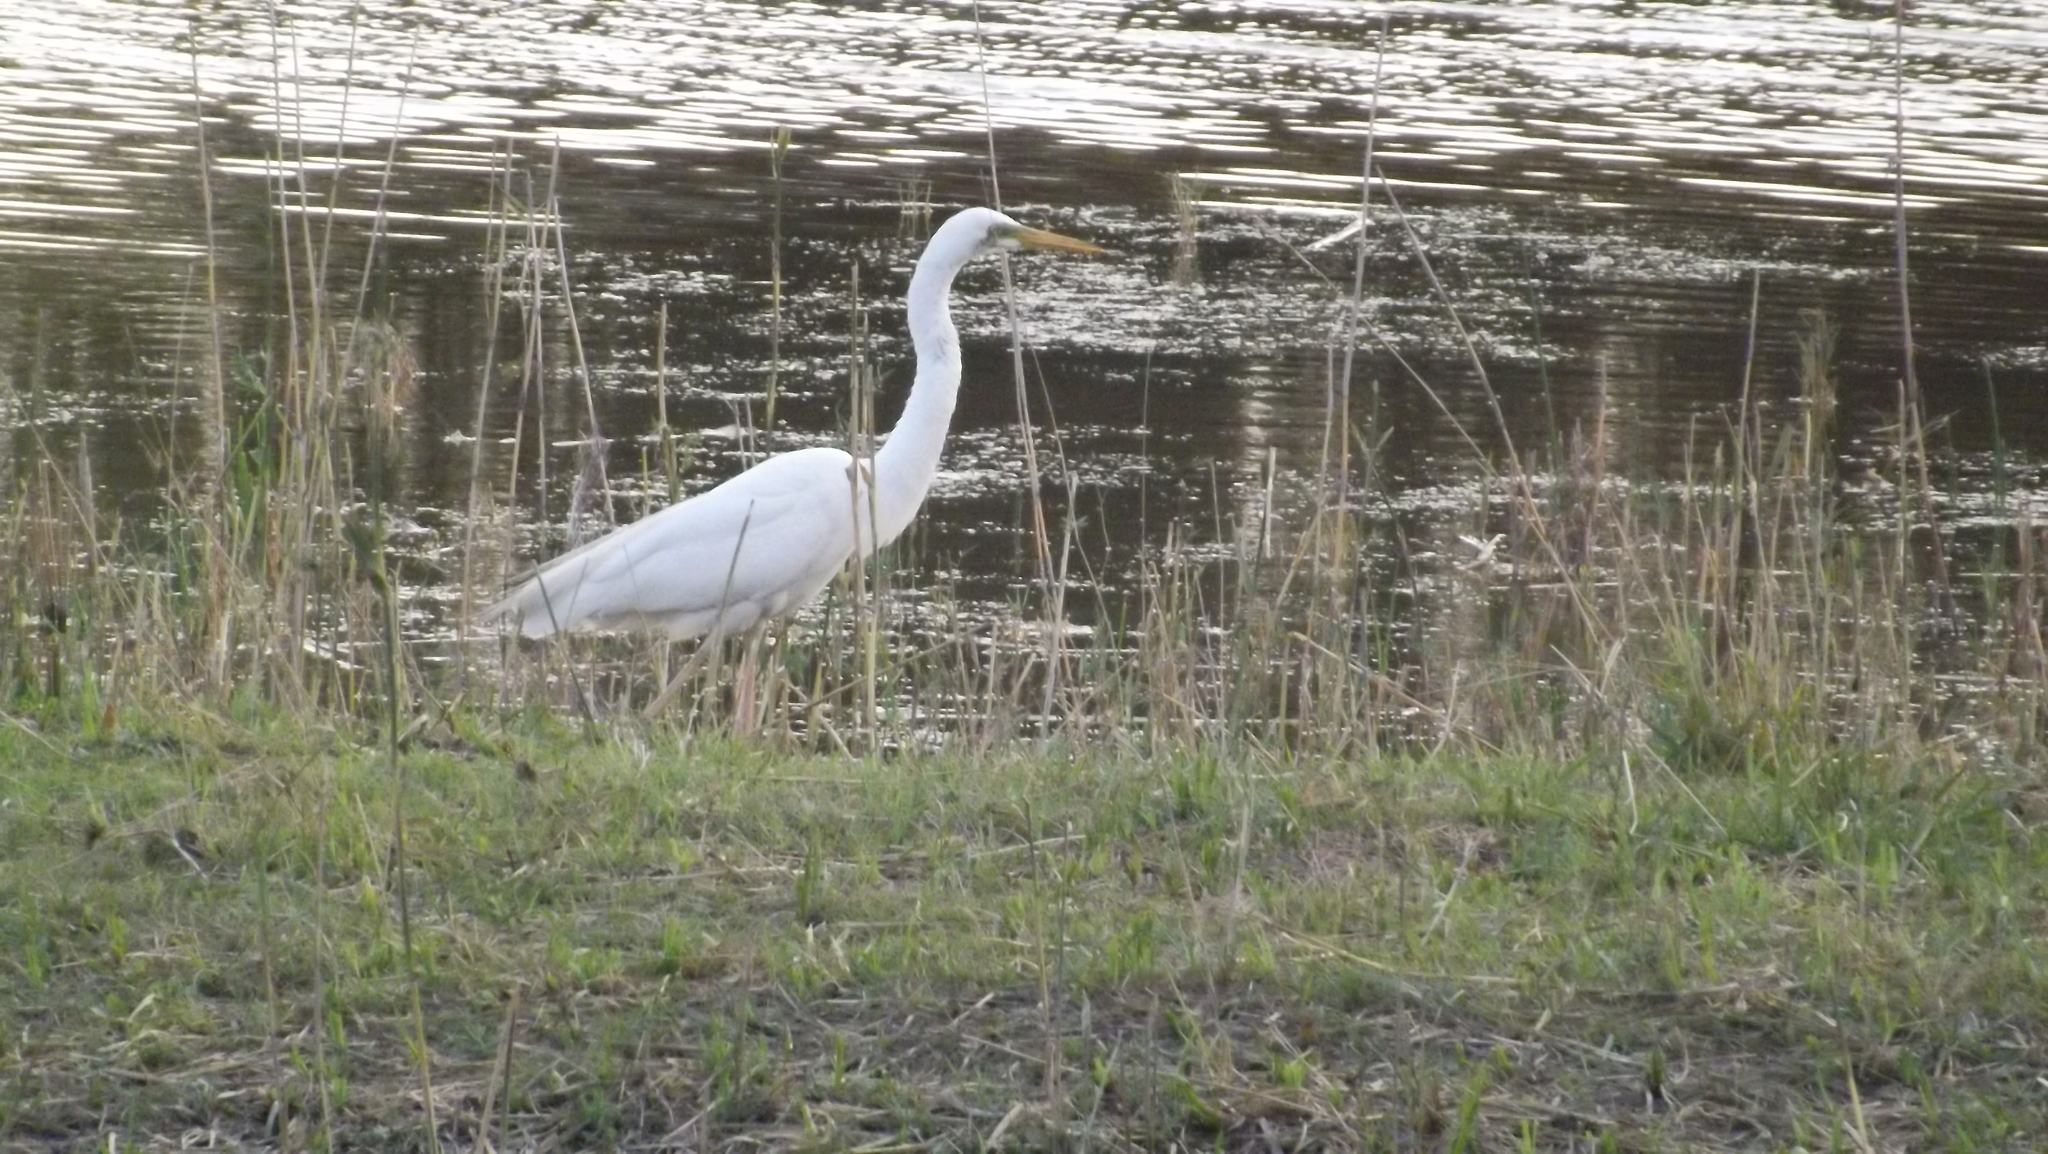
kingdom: Animalia
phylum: Chordata
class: Aves
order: Pelecaniformes
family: Ardeidae
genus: Ardea
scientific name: Ardea alba
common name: Great egret
